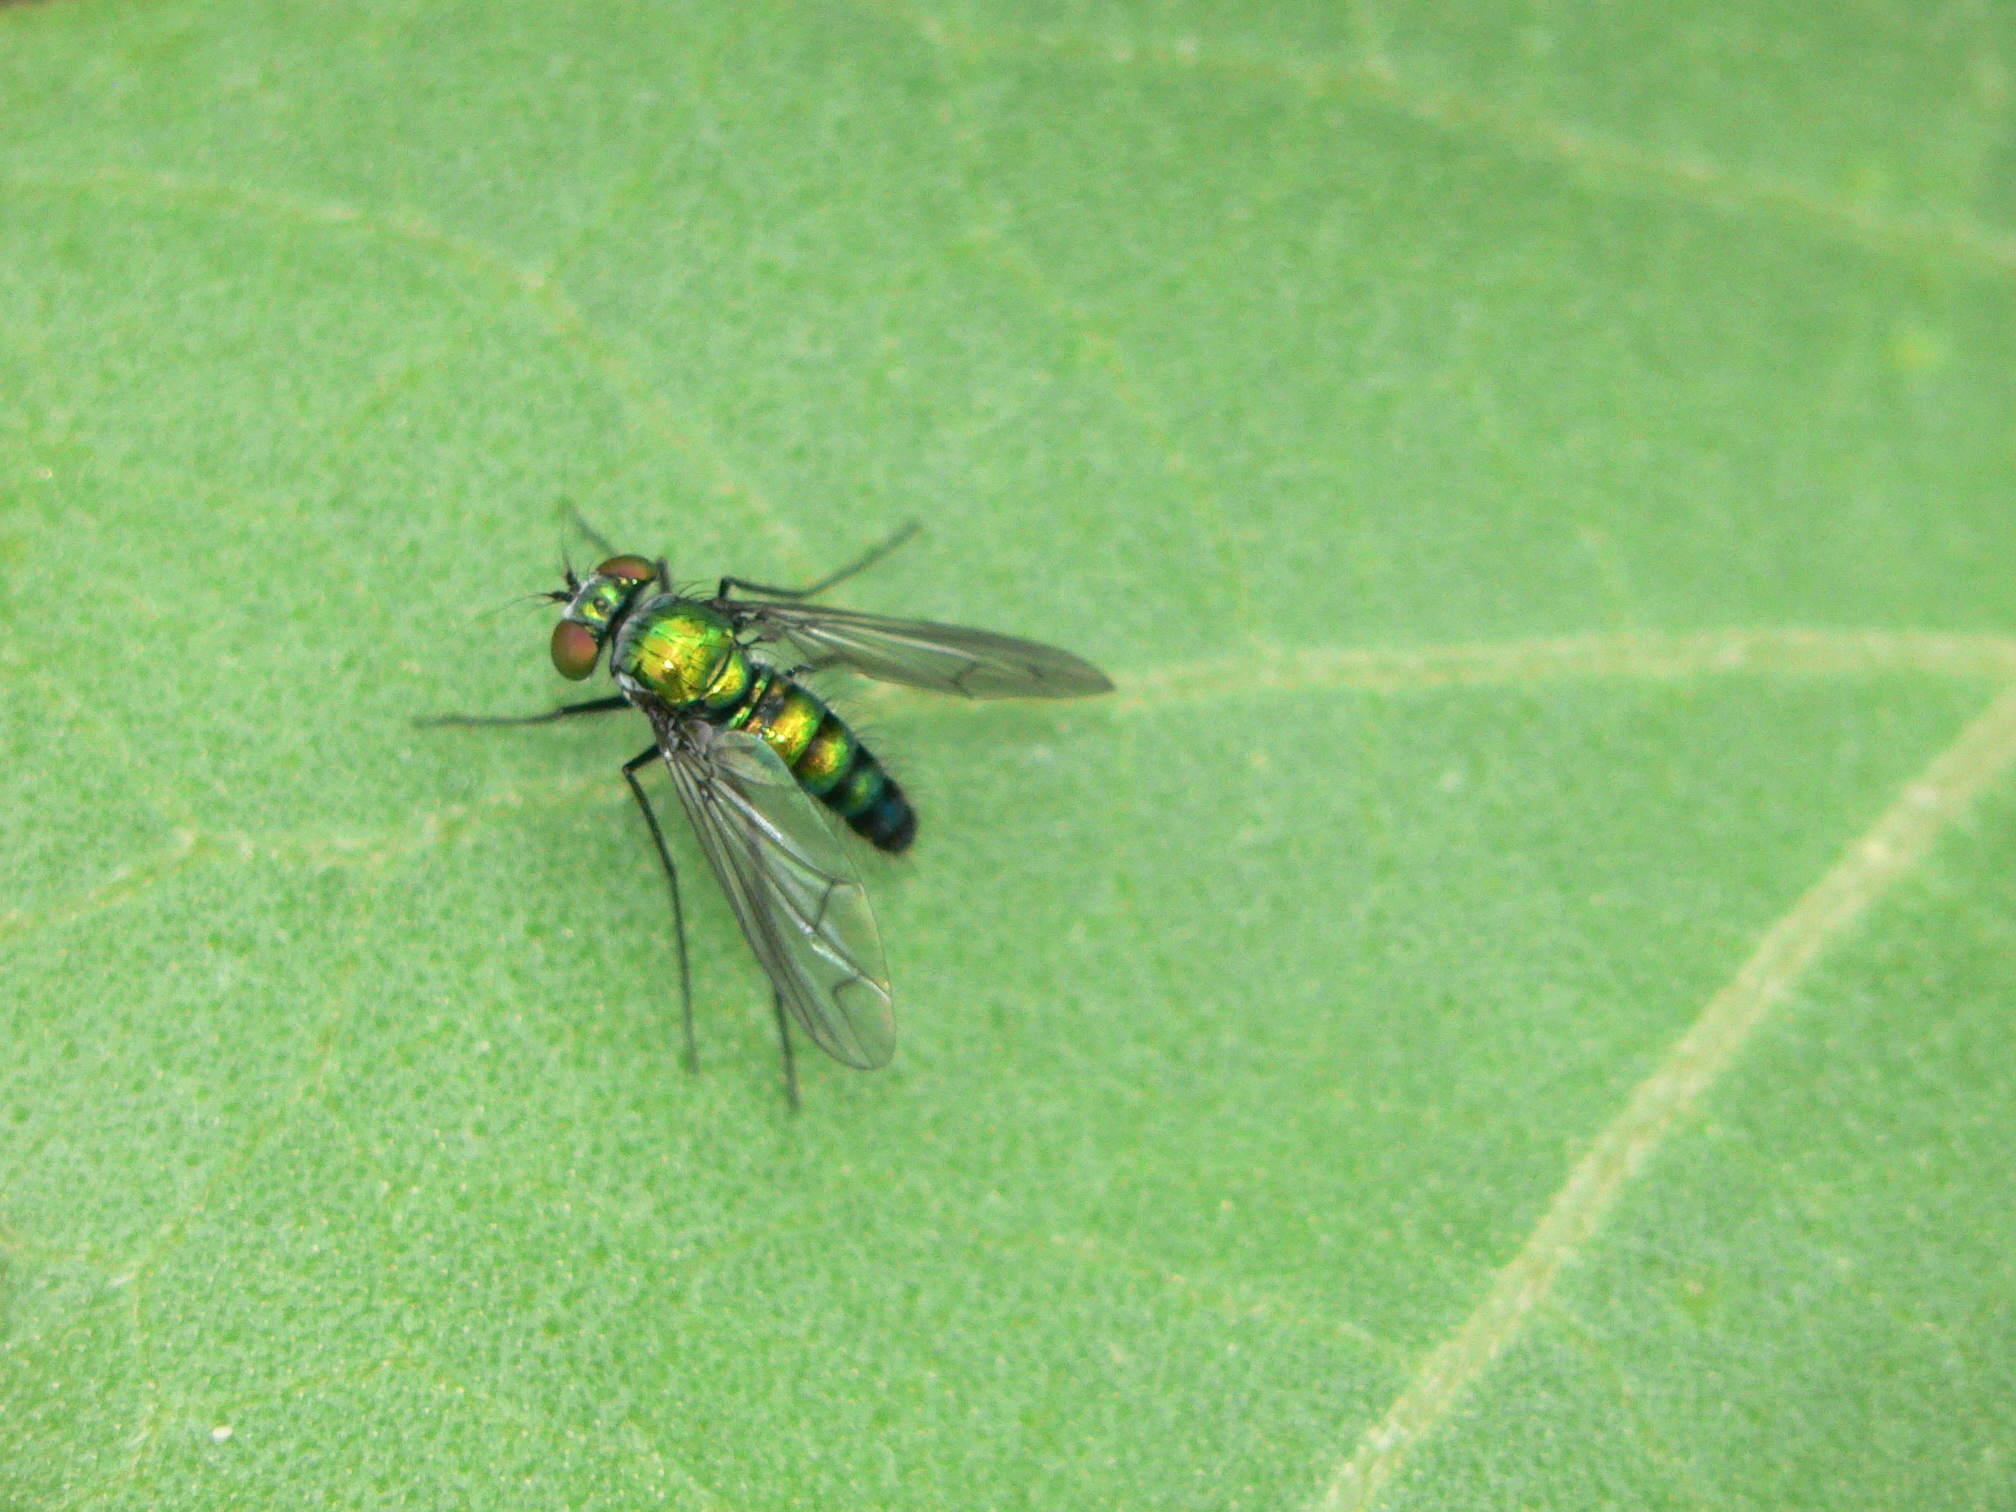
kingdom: Animalia
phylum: Arthropoda
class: Insecta
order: Diptera
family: Dolichopodidae
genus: Condylostylus
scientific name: Condylostylus patibulatus
